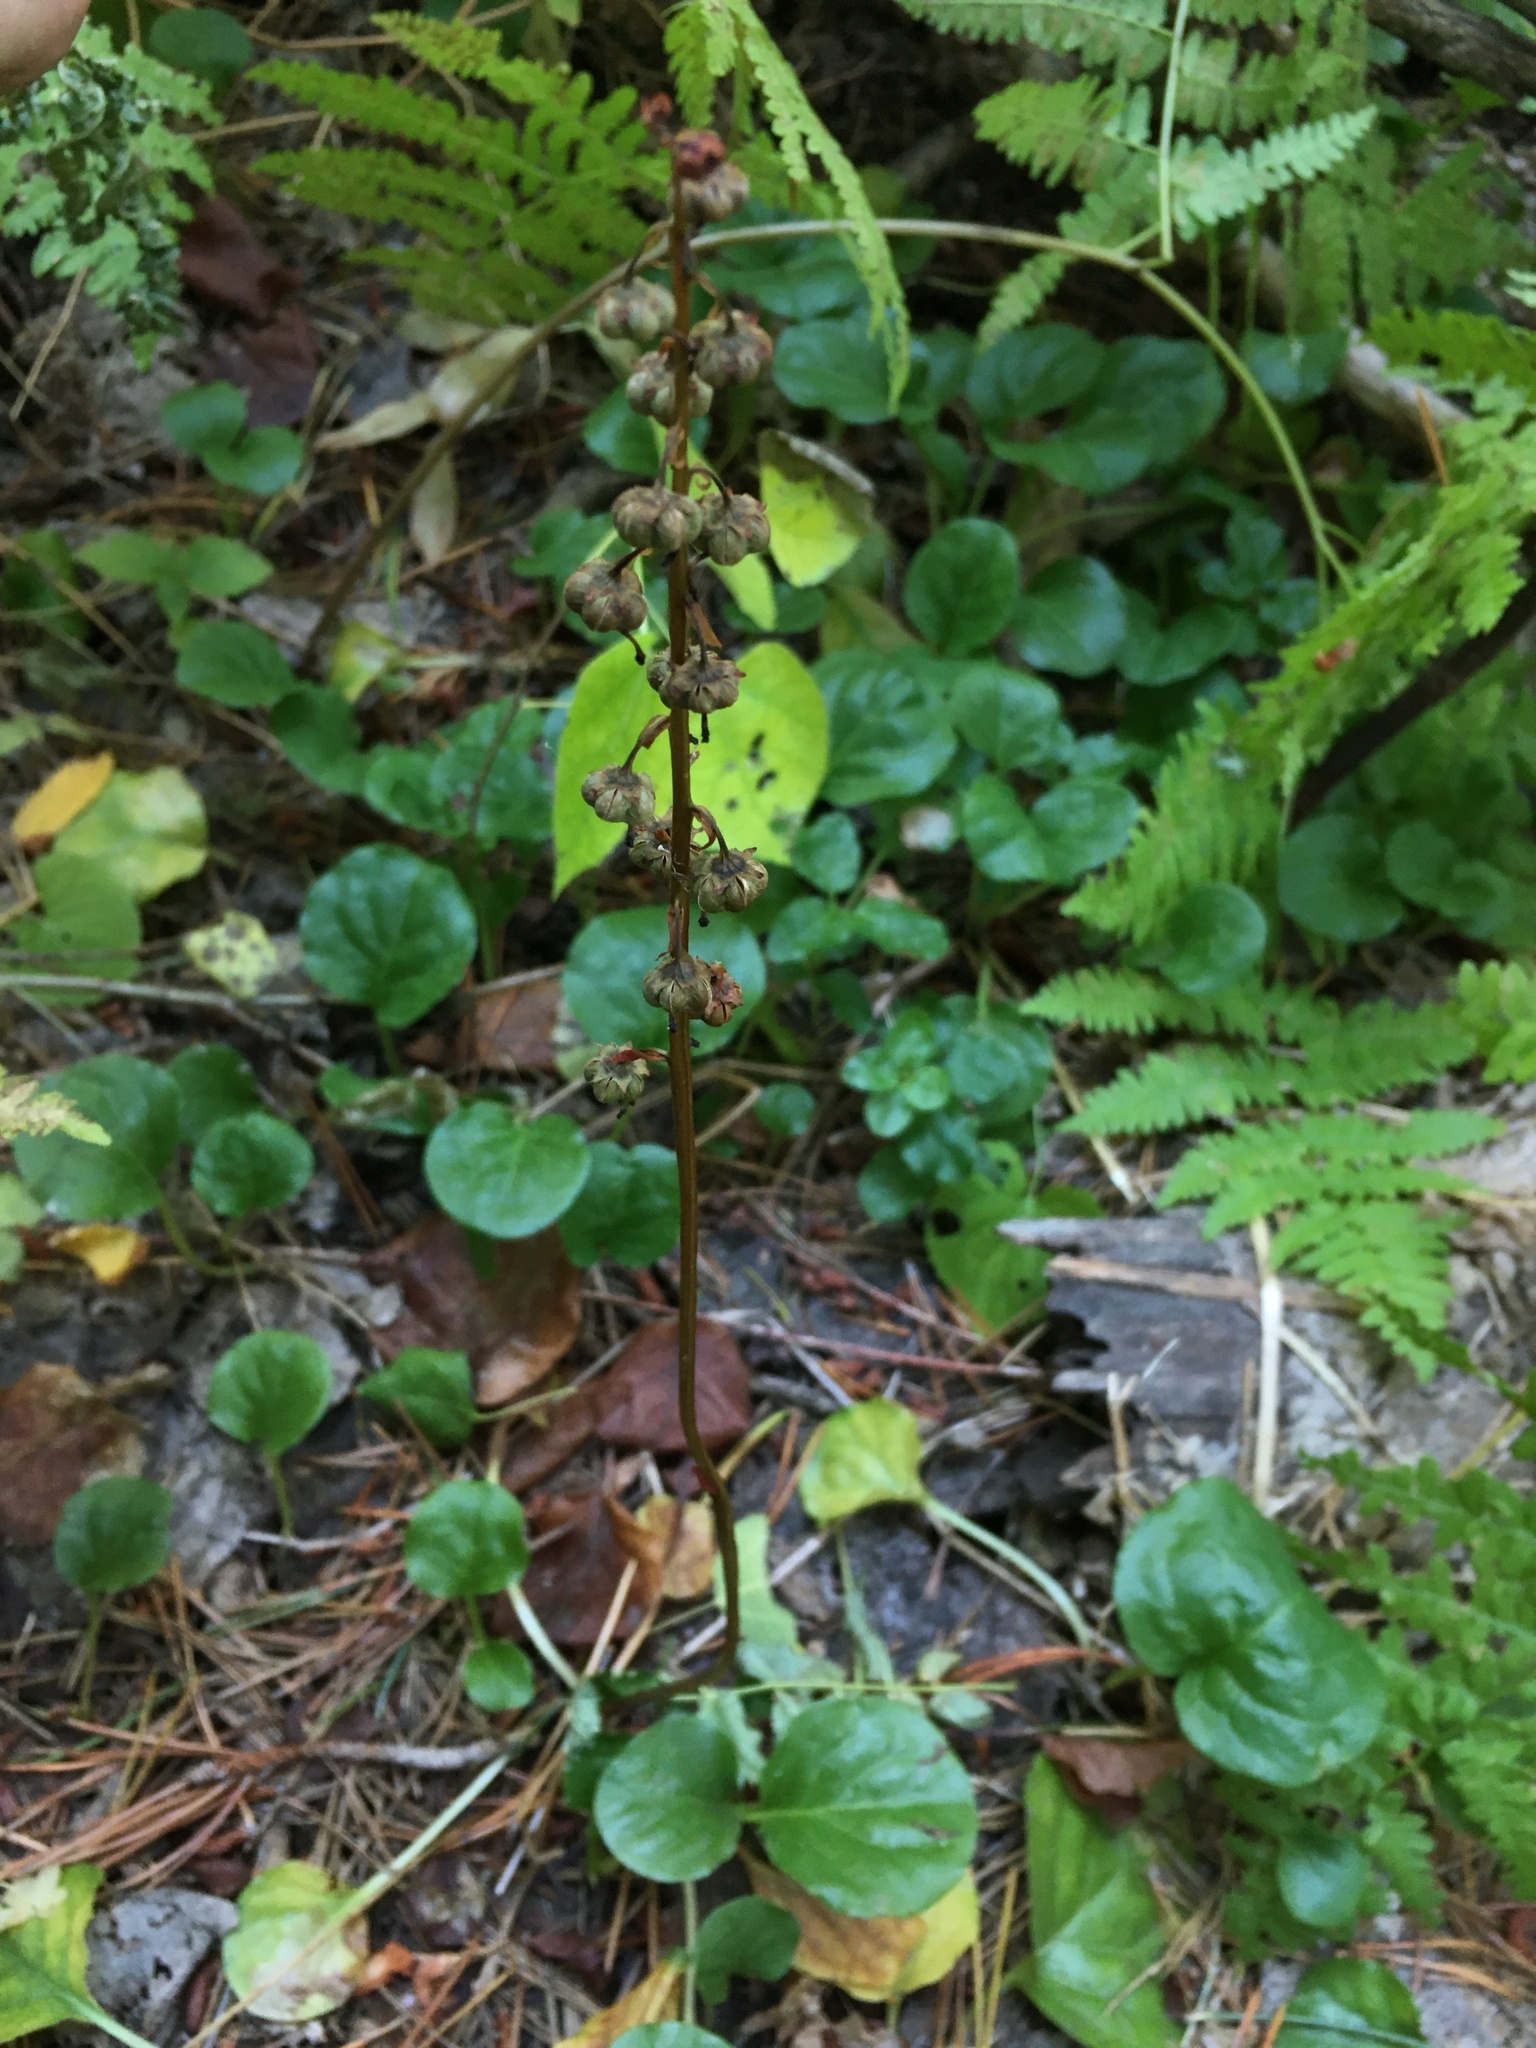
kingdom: Plantae
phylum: Tracheophyta
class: Magnoliopsida
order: Ericales
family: Ericaceae
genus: Pyrola
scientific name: Pyrola asarifolia
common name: Bog wintergreen
